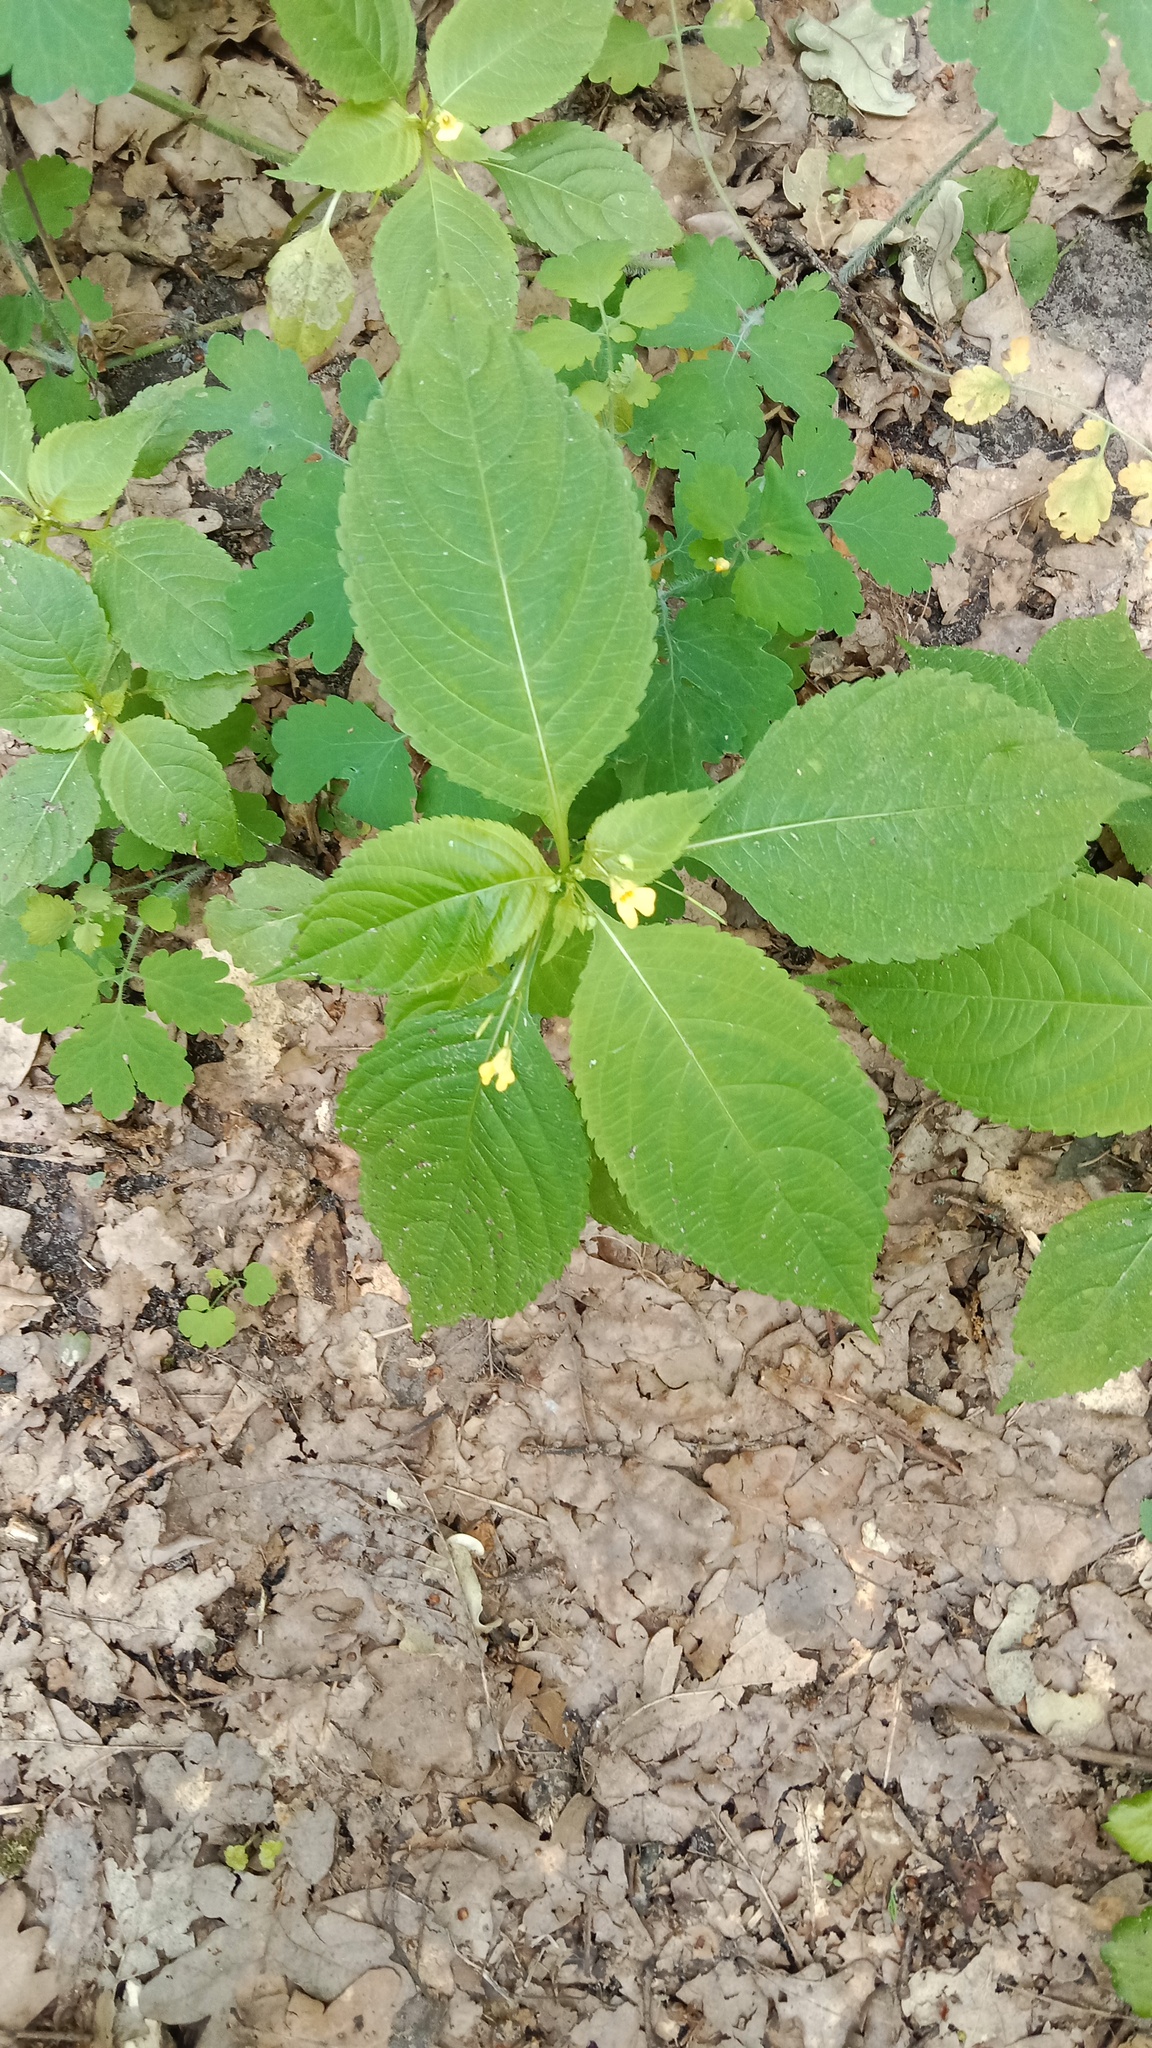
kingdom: Plantae
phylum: Tracheophyta
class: Magnoliopsida
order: Ericales
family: Balsaminaceae
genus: Impatiens
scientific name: Impatiens parviflora
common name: Small balsam
